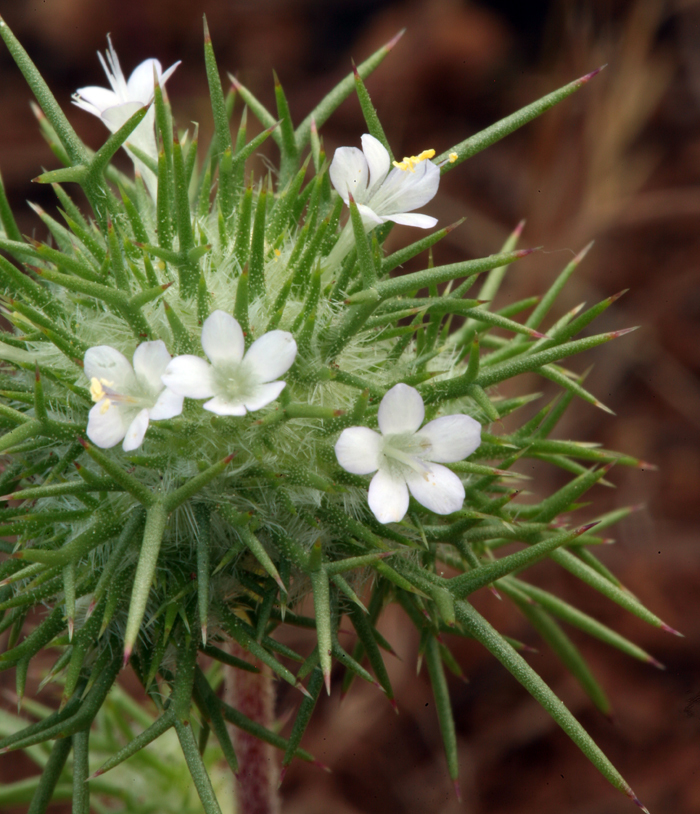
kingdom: Plantae
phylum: Tracheophyta
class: Magnoliopsida
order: Ericales
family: Polemoniaceae
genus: Navarretia
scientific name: Navarretia intertexta
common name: Needle-leaved navarretia
